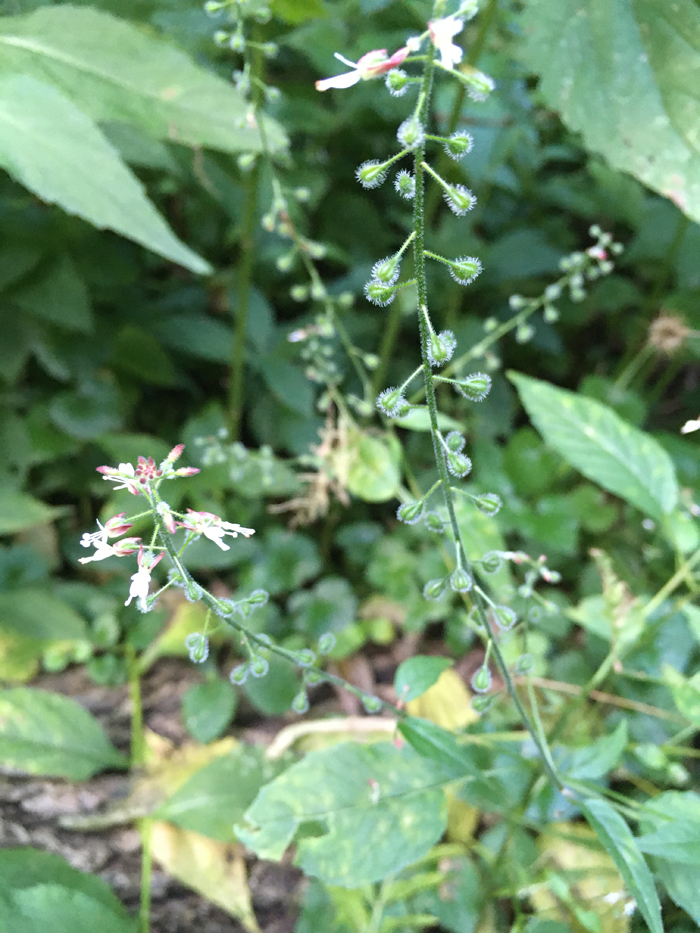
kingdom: Plantae
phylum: Tracheophyta
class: Magnoliopsida
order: Myrtales
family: Onagraceae
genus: Circaea
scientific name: Circaea lutetiana
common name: Enchanter's-nightshade
